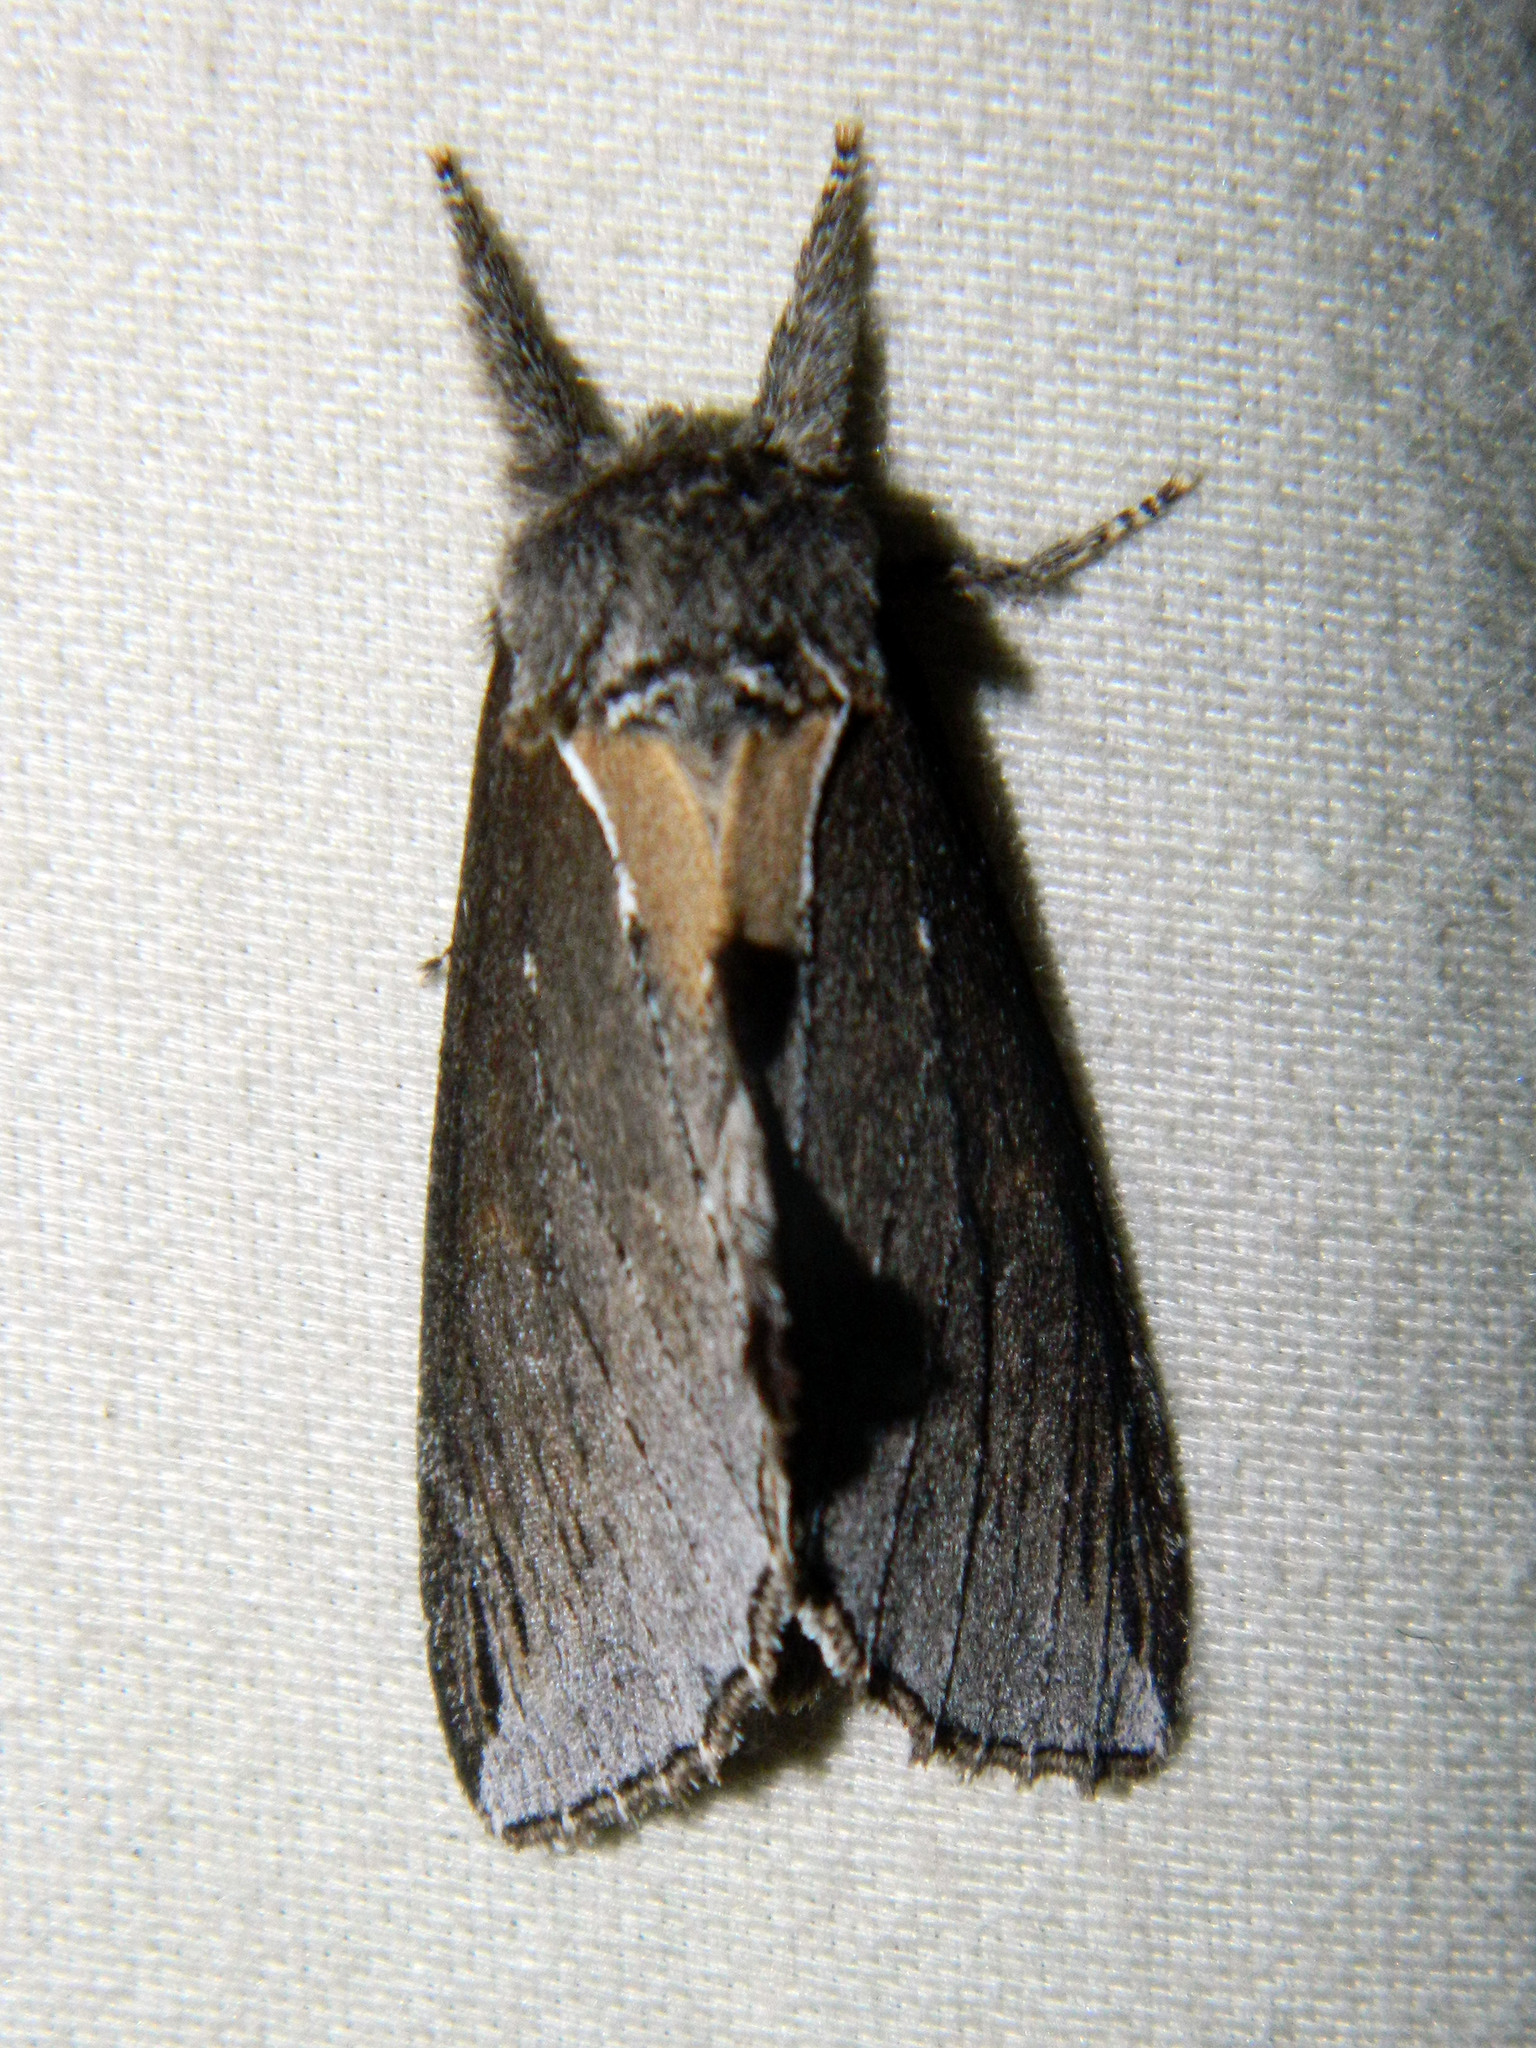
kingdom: Animalia
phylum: Arthropoda
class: Insecta
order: Lepidoptera
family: Notodontidae
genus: Pheosidea
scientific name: Pheosidea elegans
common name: Elegant prominent
